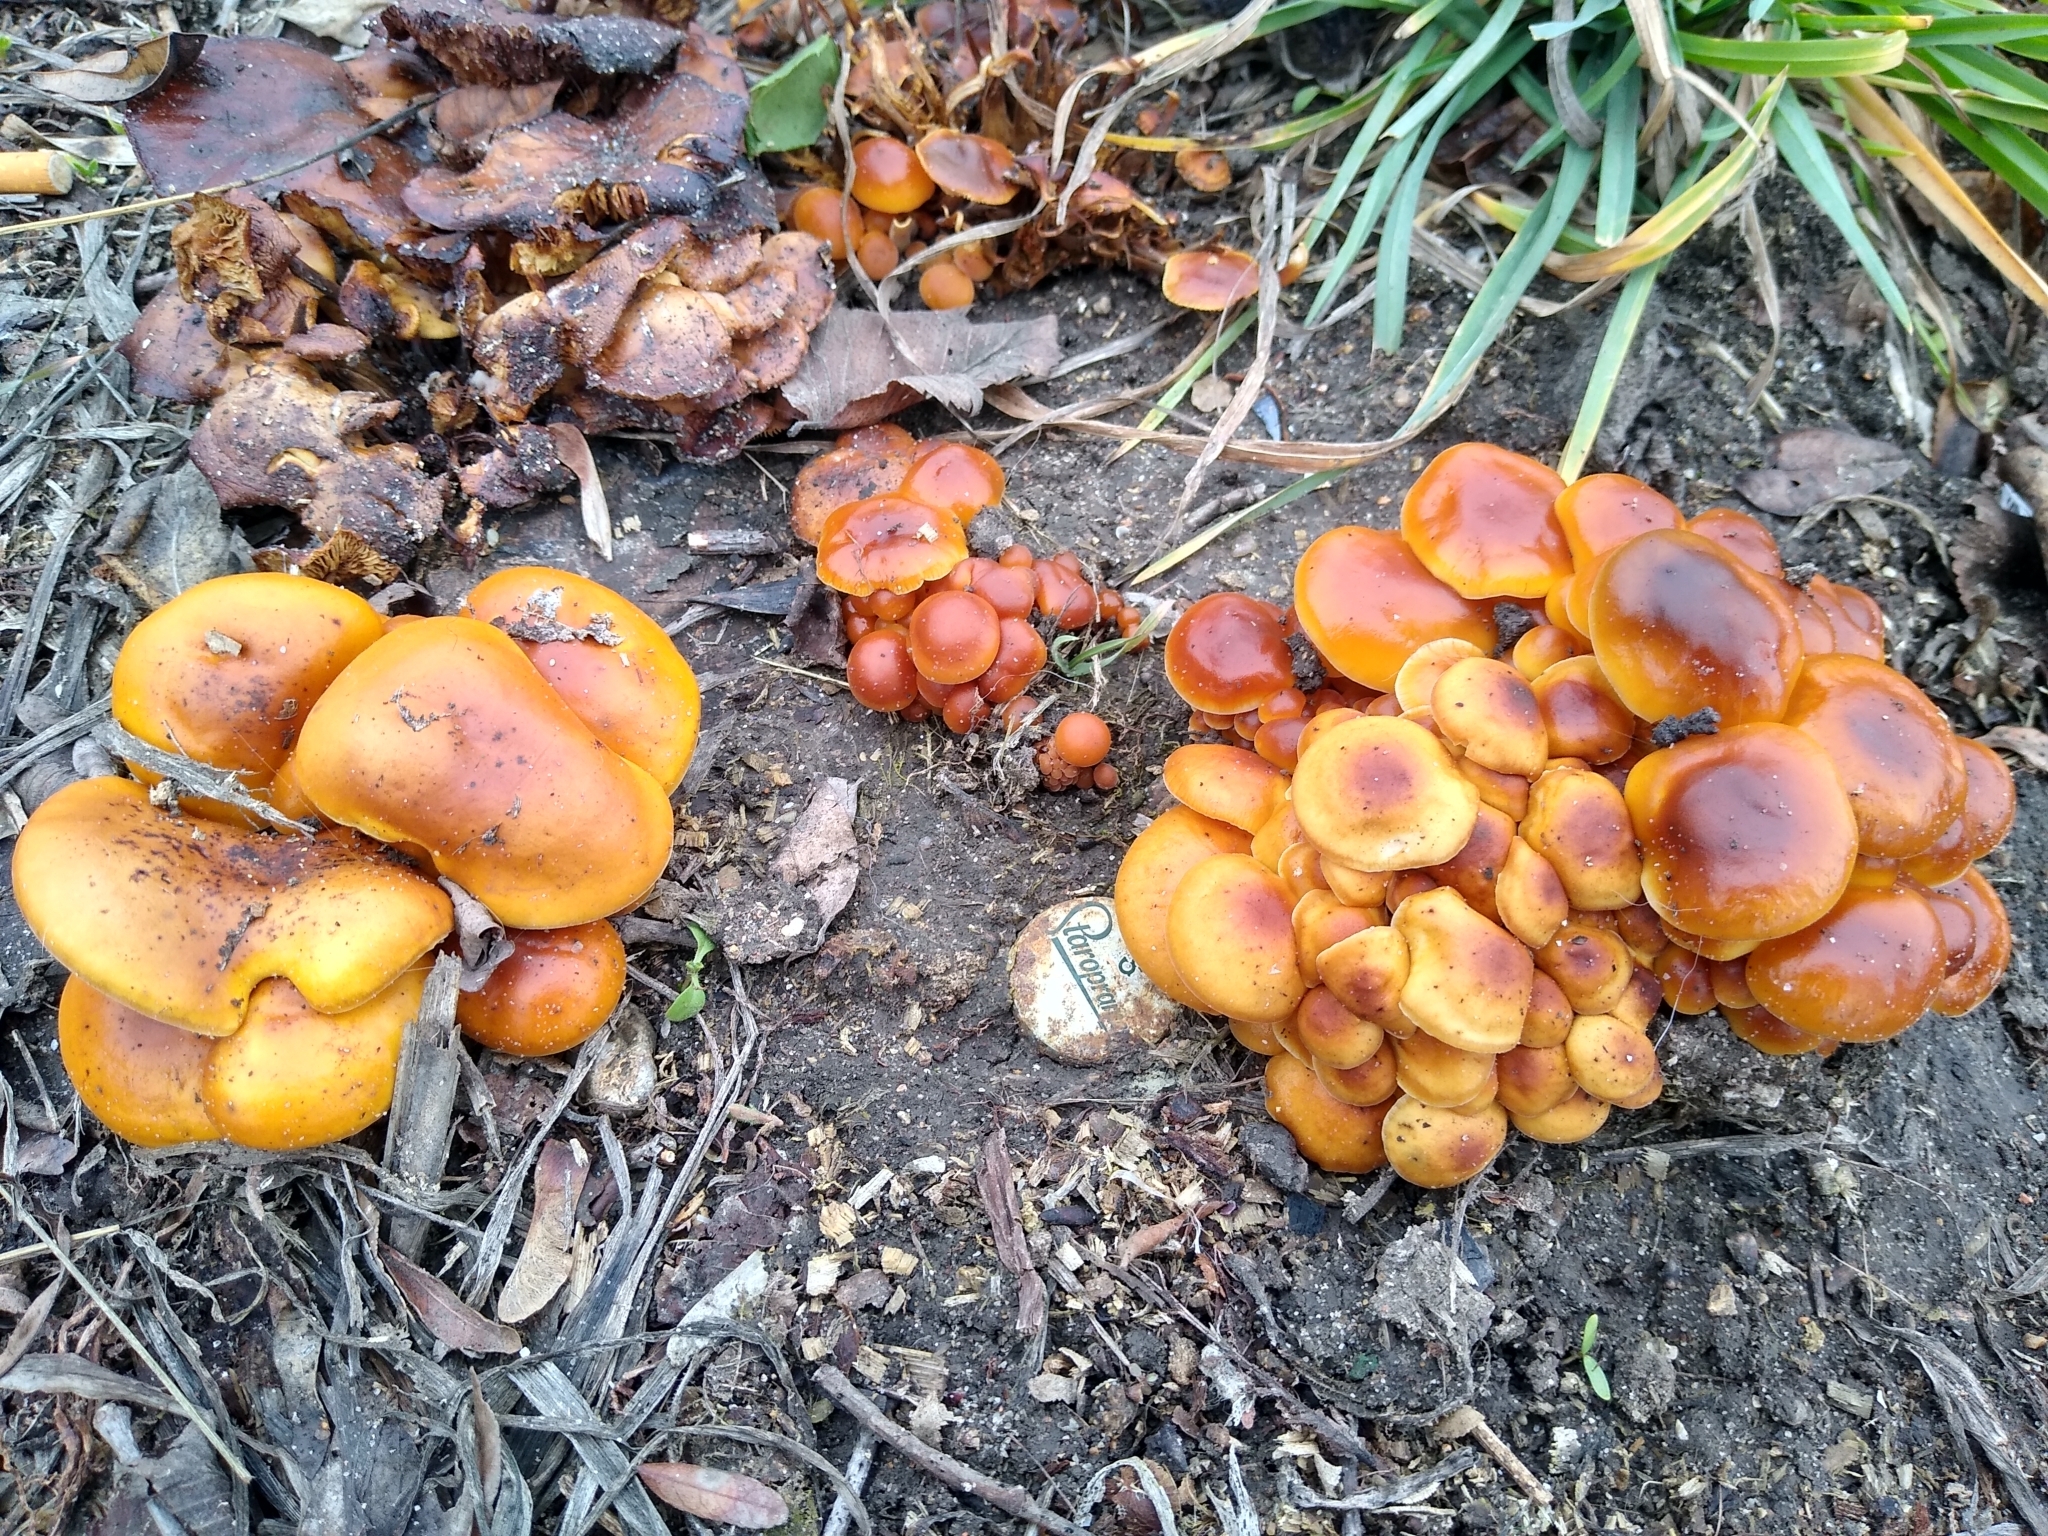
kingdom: Fungi
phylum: Basidiomycota
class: Agaricomycetes
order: Agaricales
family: Physalacriaceae
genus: Flammulina
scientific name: Flammulina
